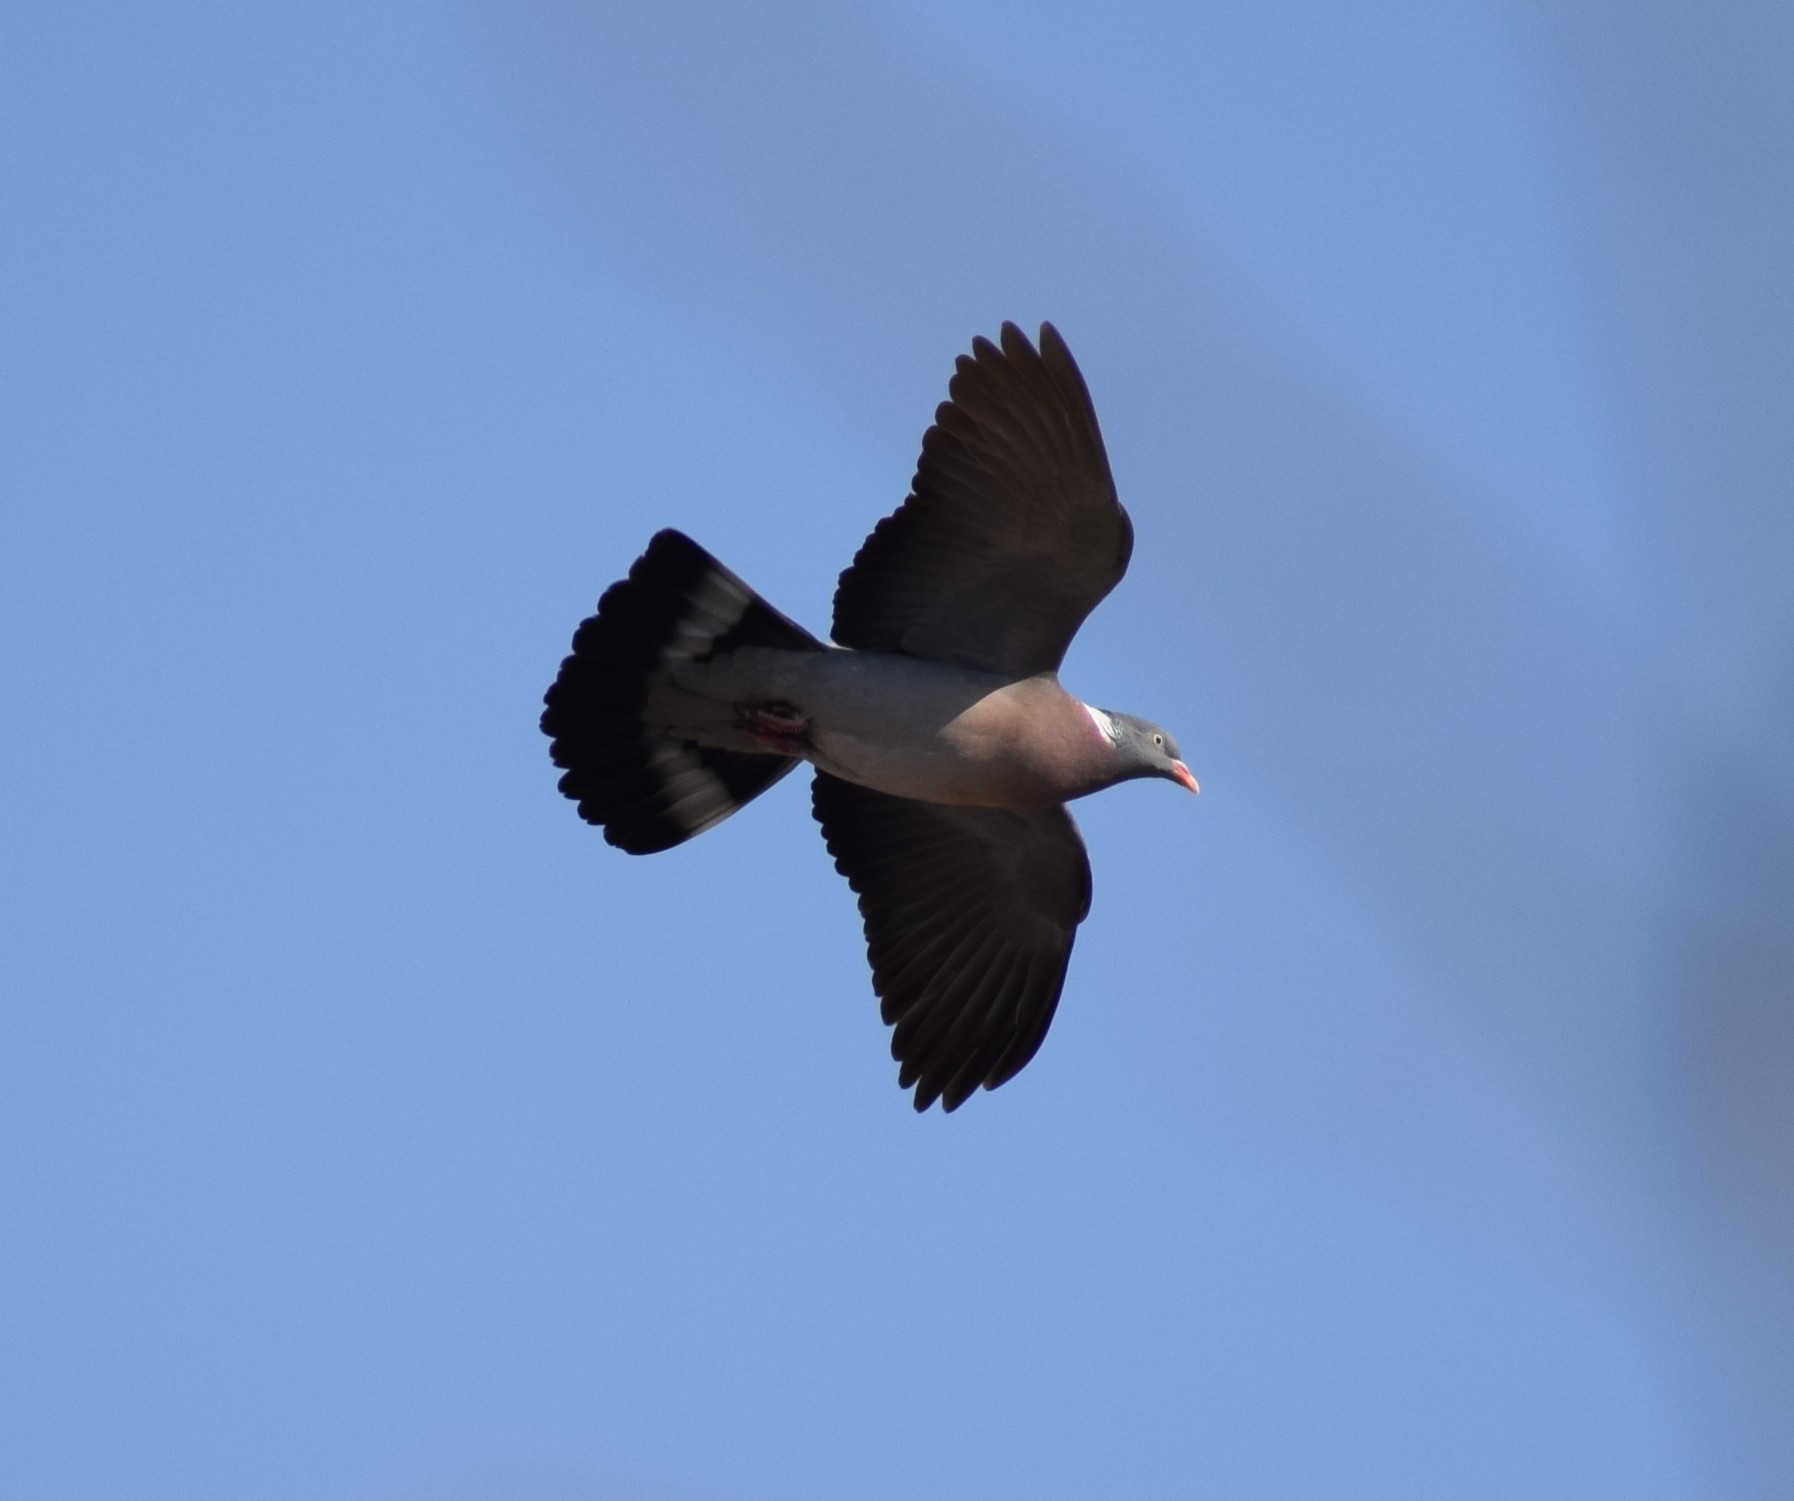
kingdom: Animalia
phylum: Chordata
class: Aves
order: Columbiformes
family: Columbidae
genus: Columba
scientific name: Columba palumbus
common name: Common wood pigeon
